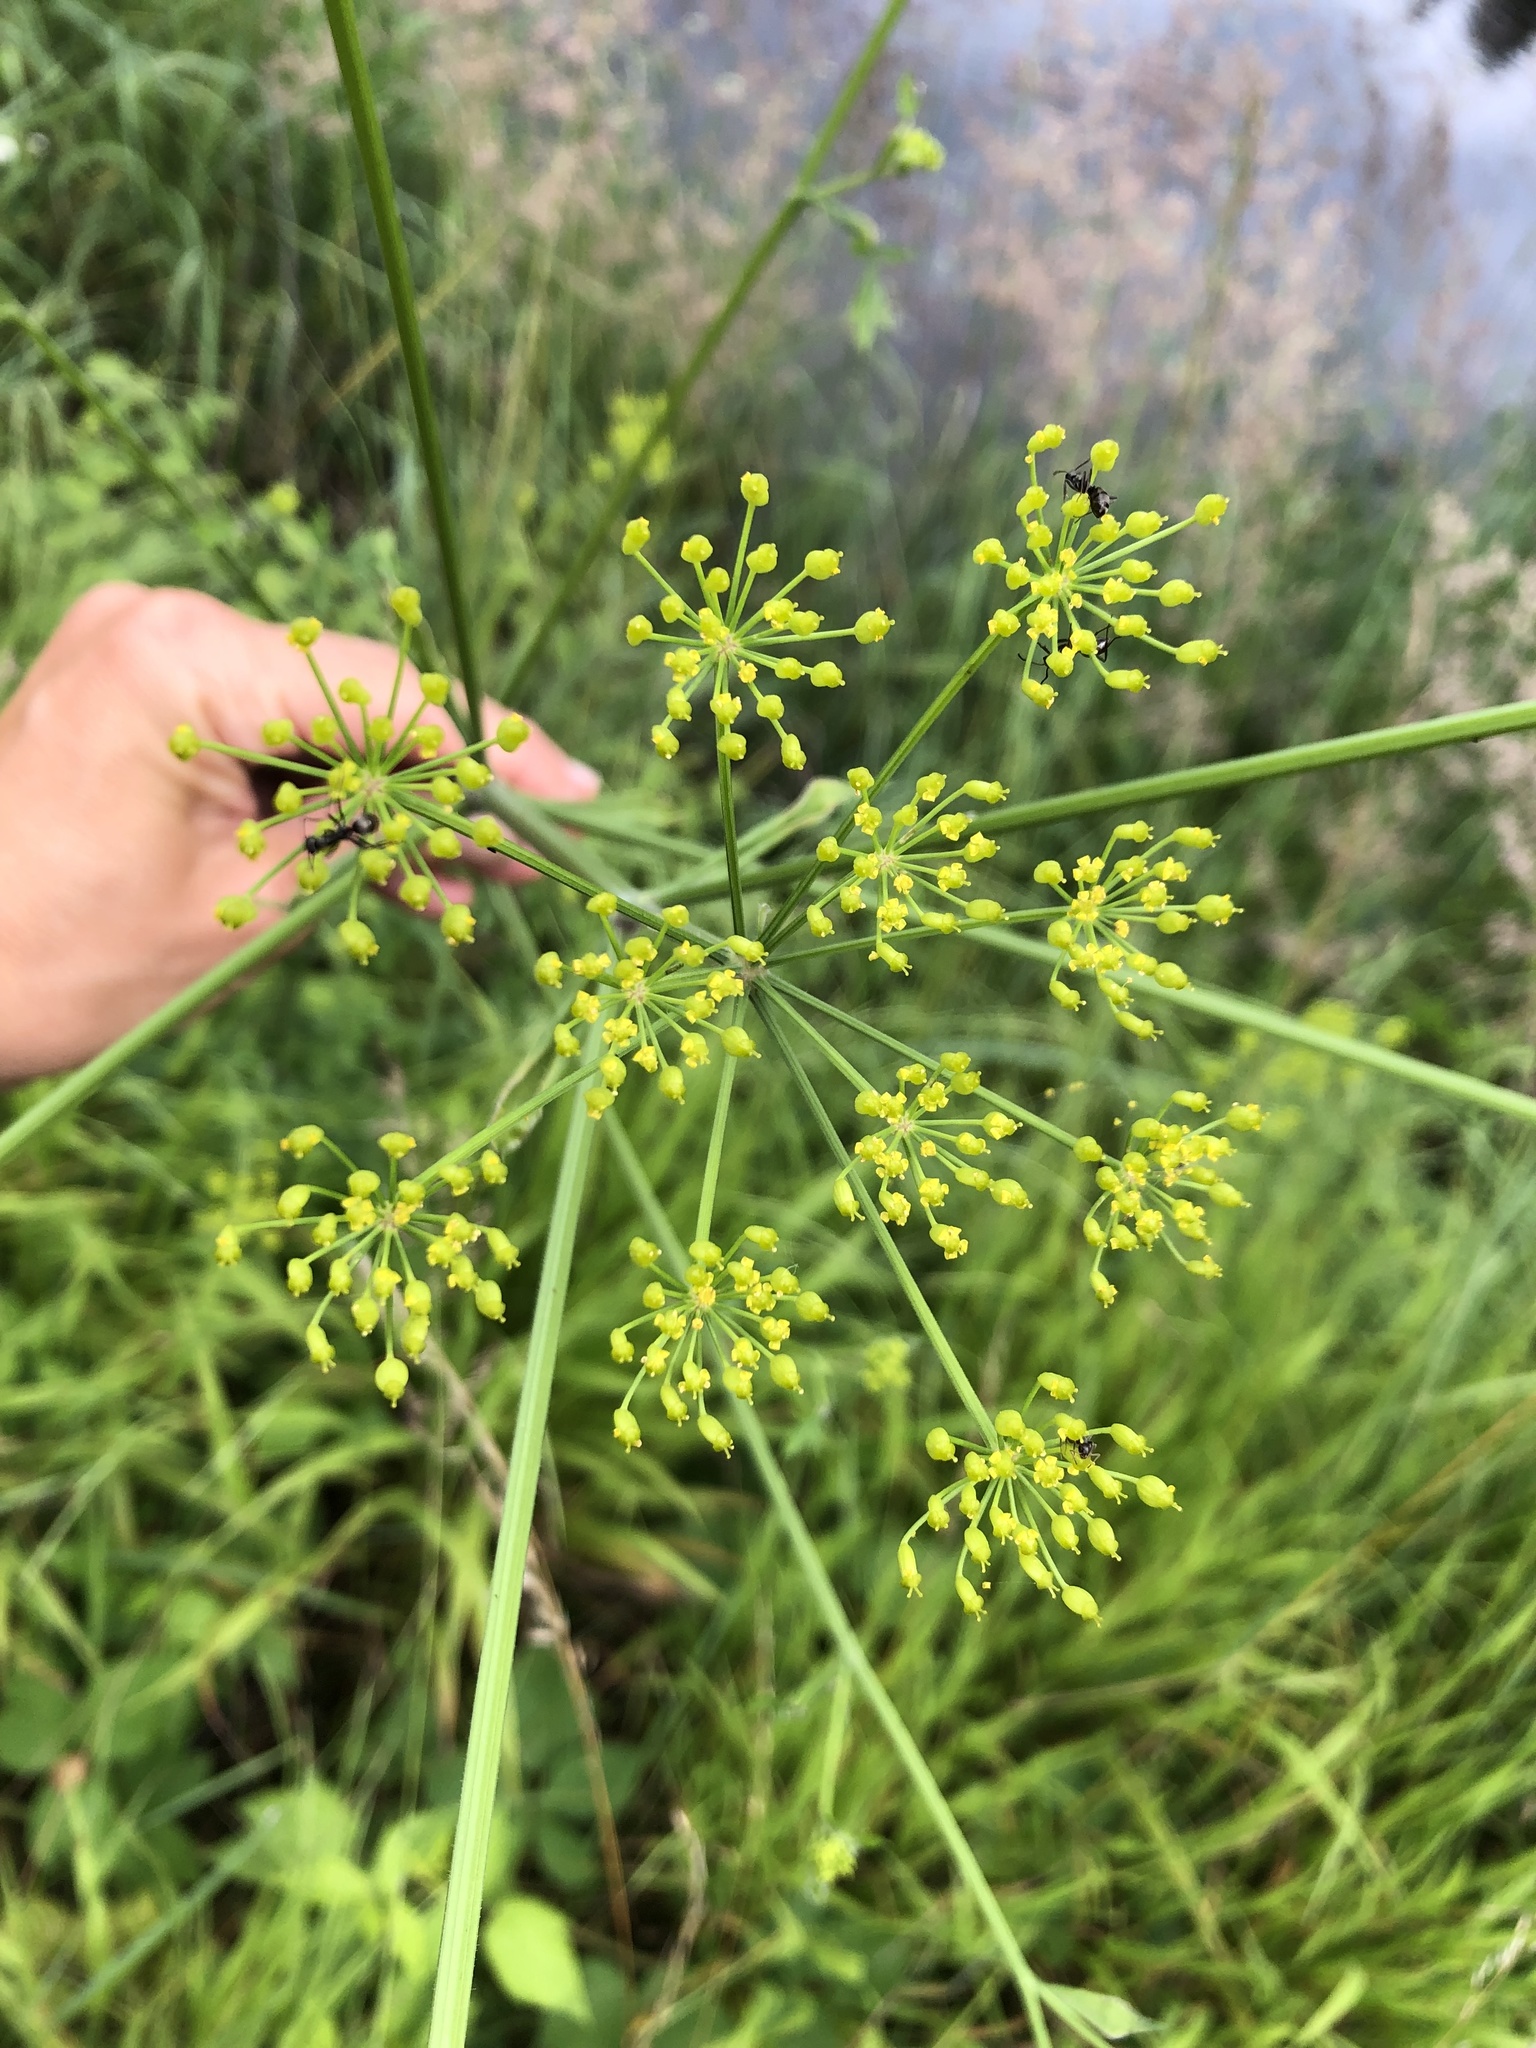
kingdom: Plantae
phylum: Tracheophyta
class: Magnoliopsida
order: Apiales
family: Apiaceae
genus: Pastinaca
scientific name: Pastinaca sativa
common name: Wild parsnip
